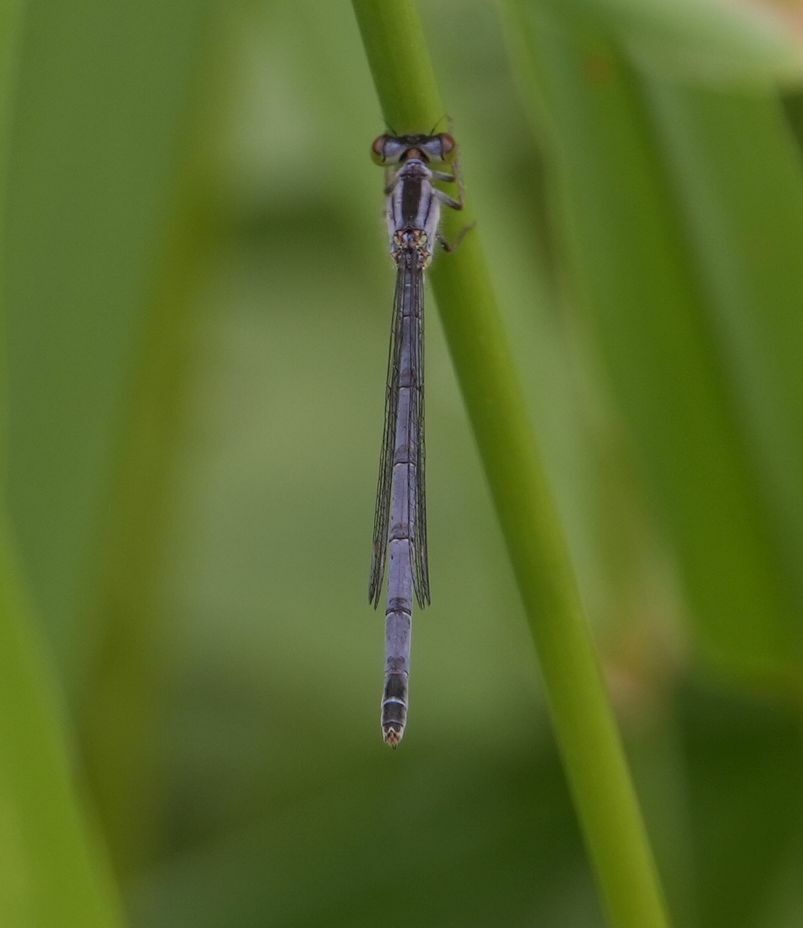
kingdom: Animalia
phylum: Arthropoda
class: Insecta
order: Odonata
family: Coenagrionidae
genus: Ischnura
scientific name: Ischnura verticalis
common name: Eastern forktail
